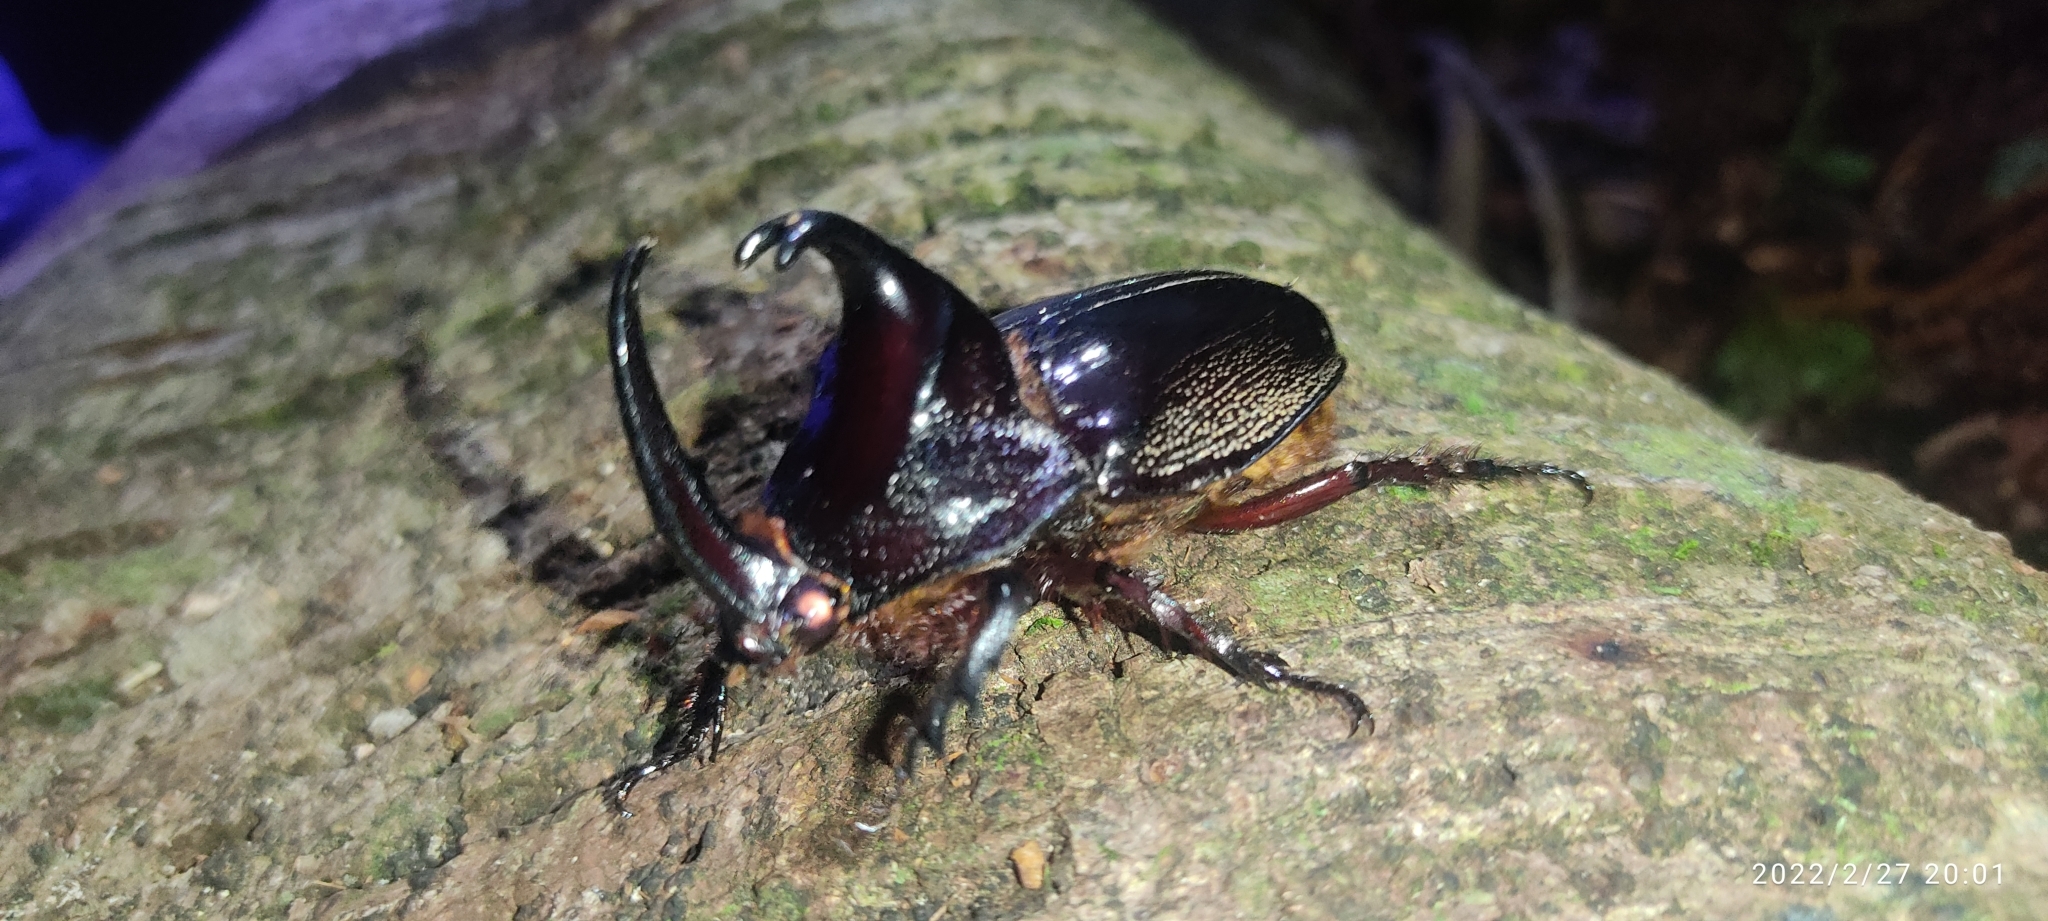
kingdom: Animalia
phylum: Arthropoda
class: Insecta
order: Coleoptera
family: Scarabaeidae
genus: Enema
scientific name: Enema pan
